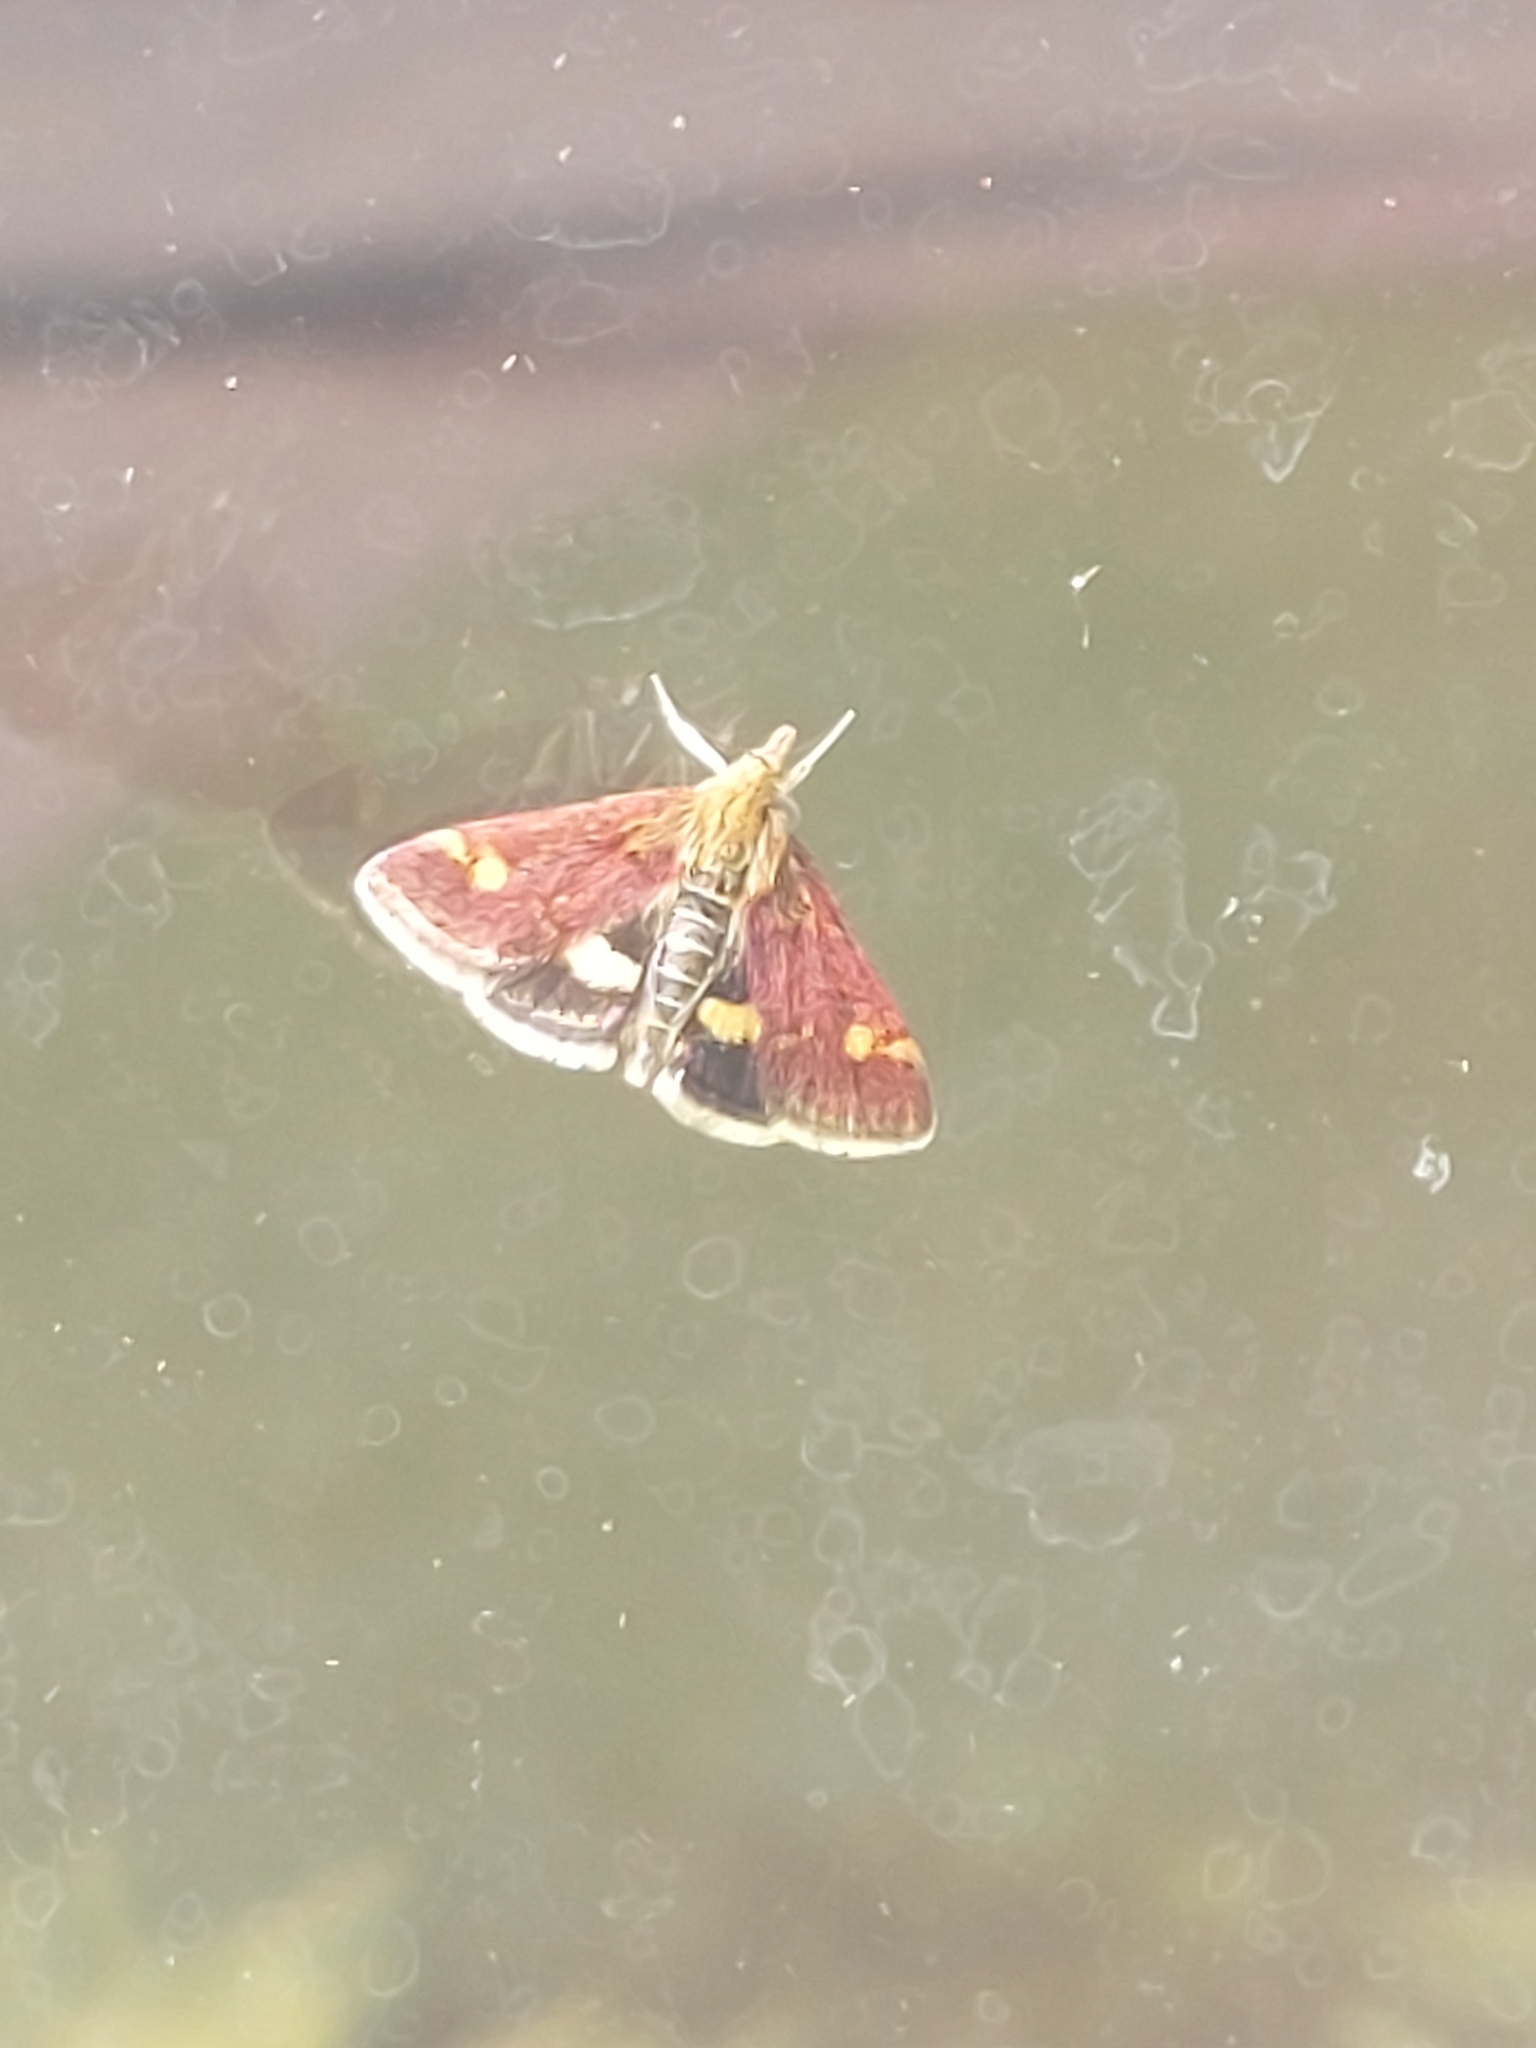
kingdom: Animalia
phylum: Arthropoda
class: Insecta
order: Lepidoptera
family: Crambidae
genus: Pyrausta
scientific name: Pyrausta aurata
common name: Small purple & gold
